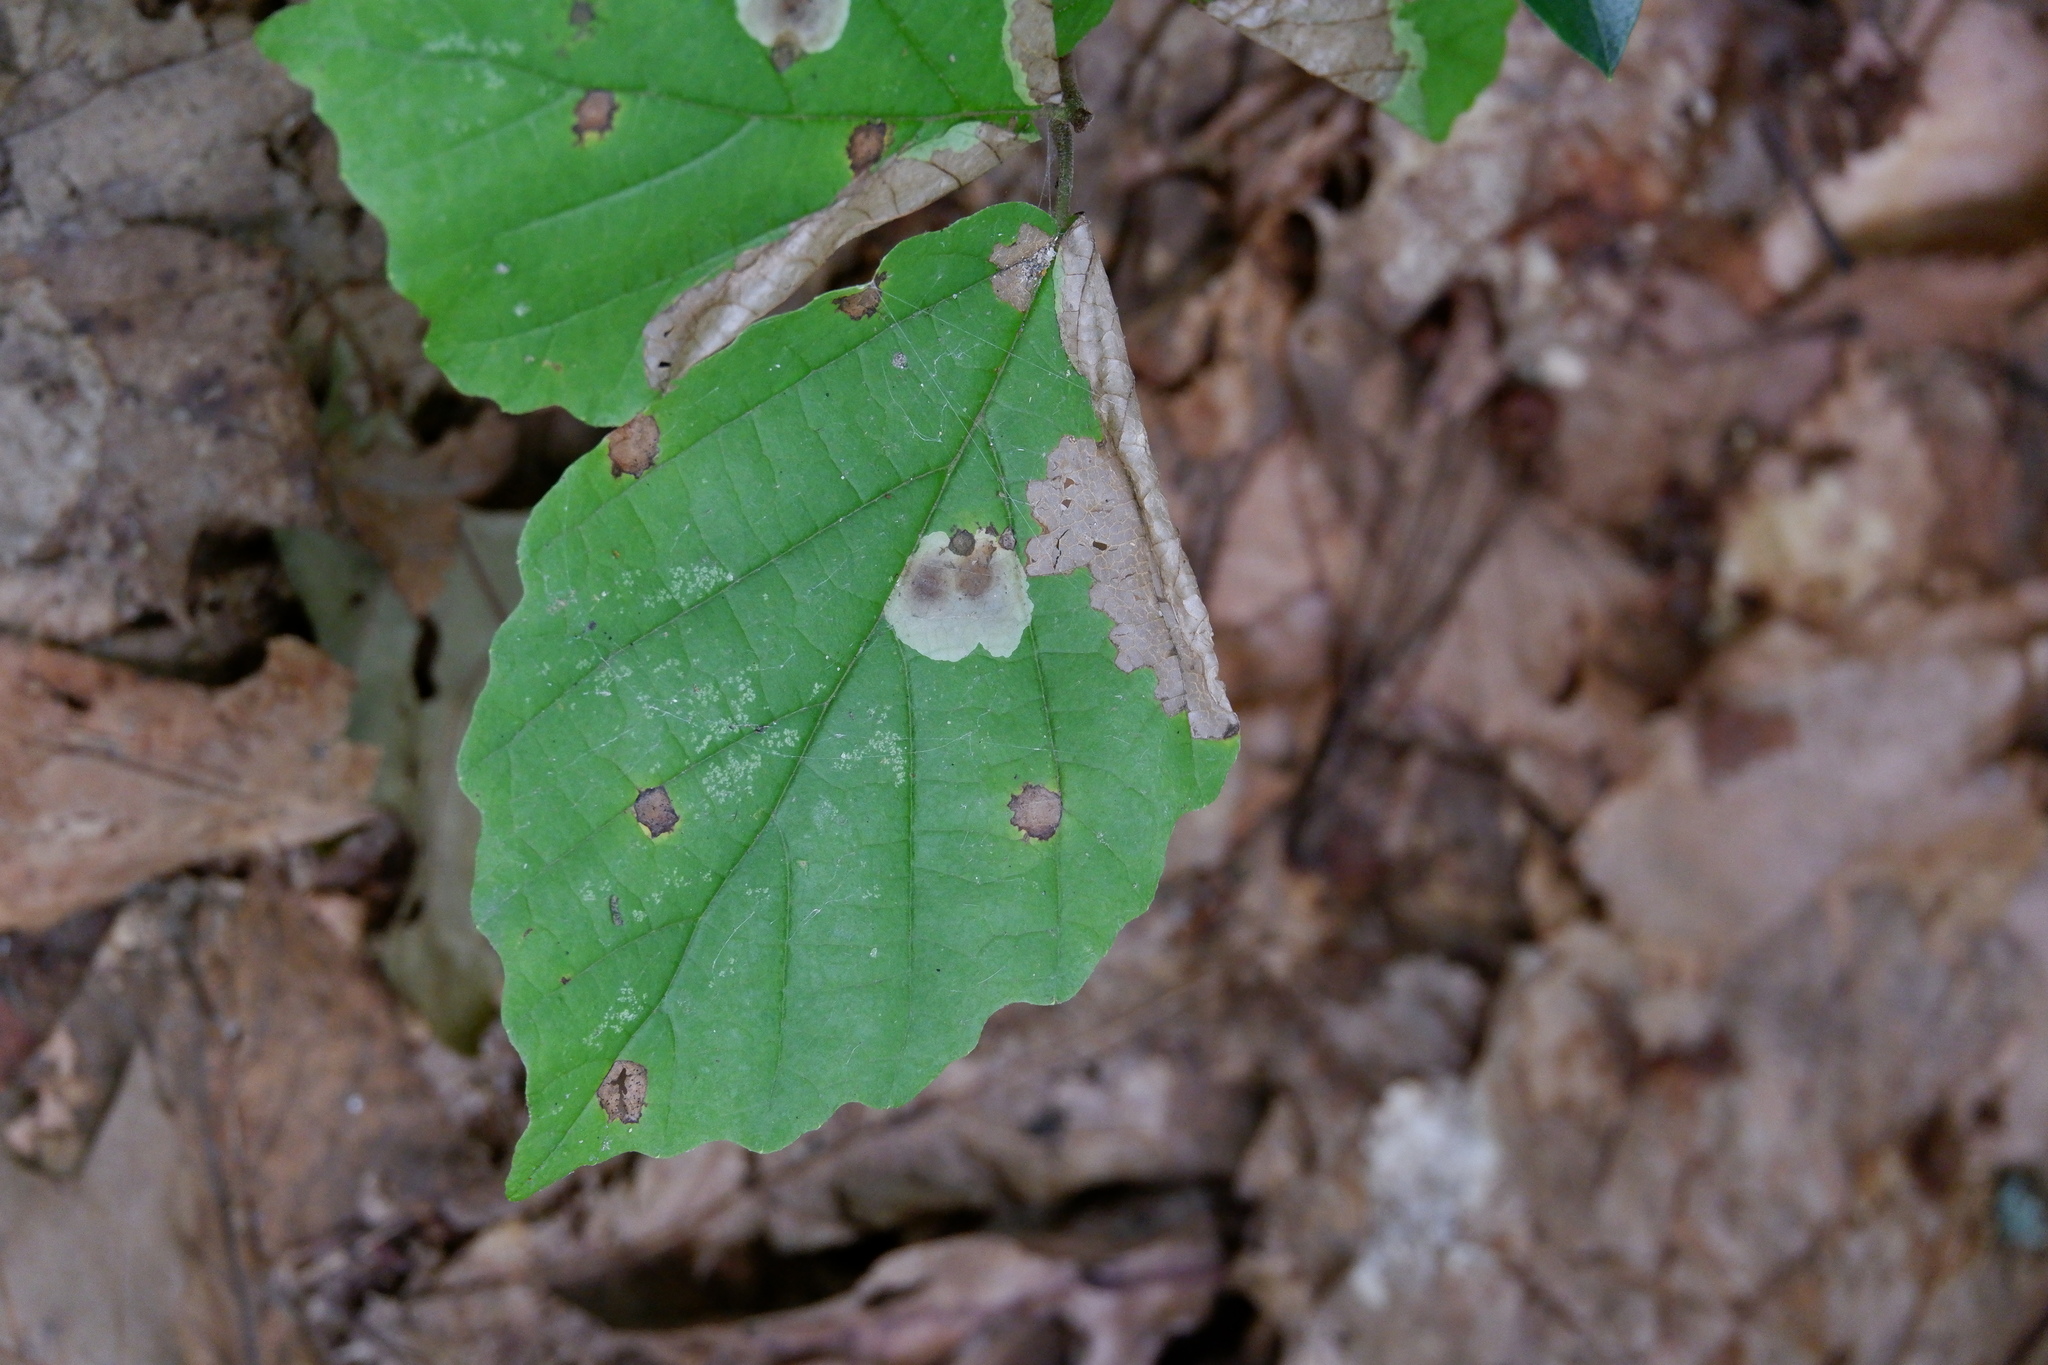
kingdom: Animalia
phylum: Arthropoda
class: Insecta
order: Lepidoptera
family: Gracillariidae
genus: Cameraria
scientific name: Cameraria hamameliella
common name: Witchhazel leafminer
